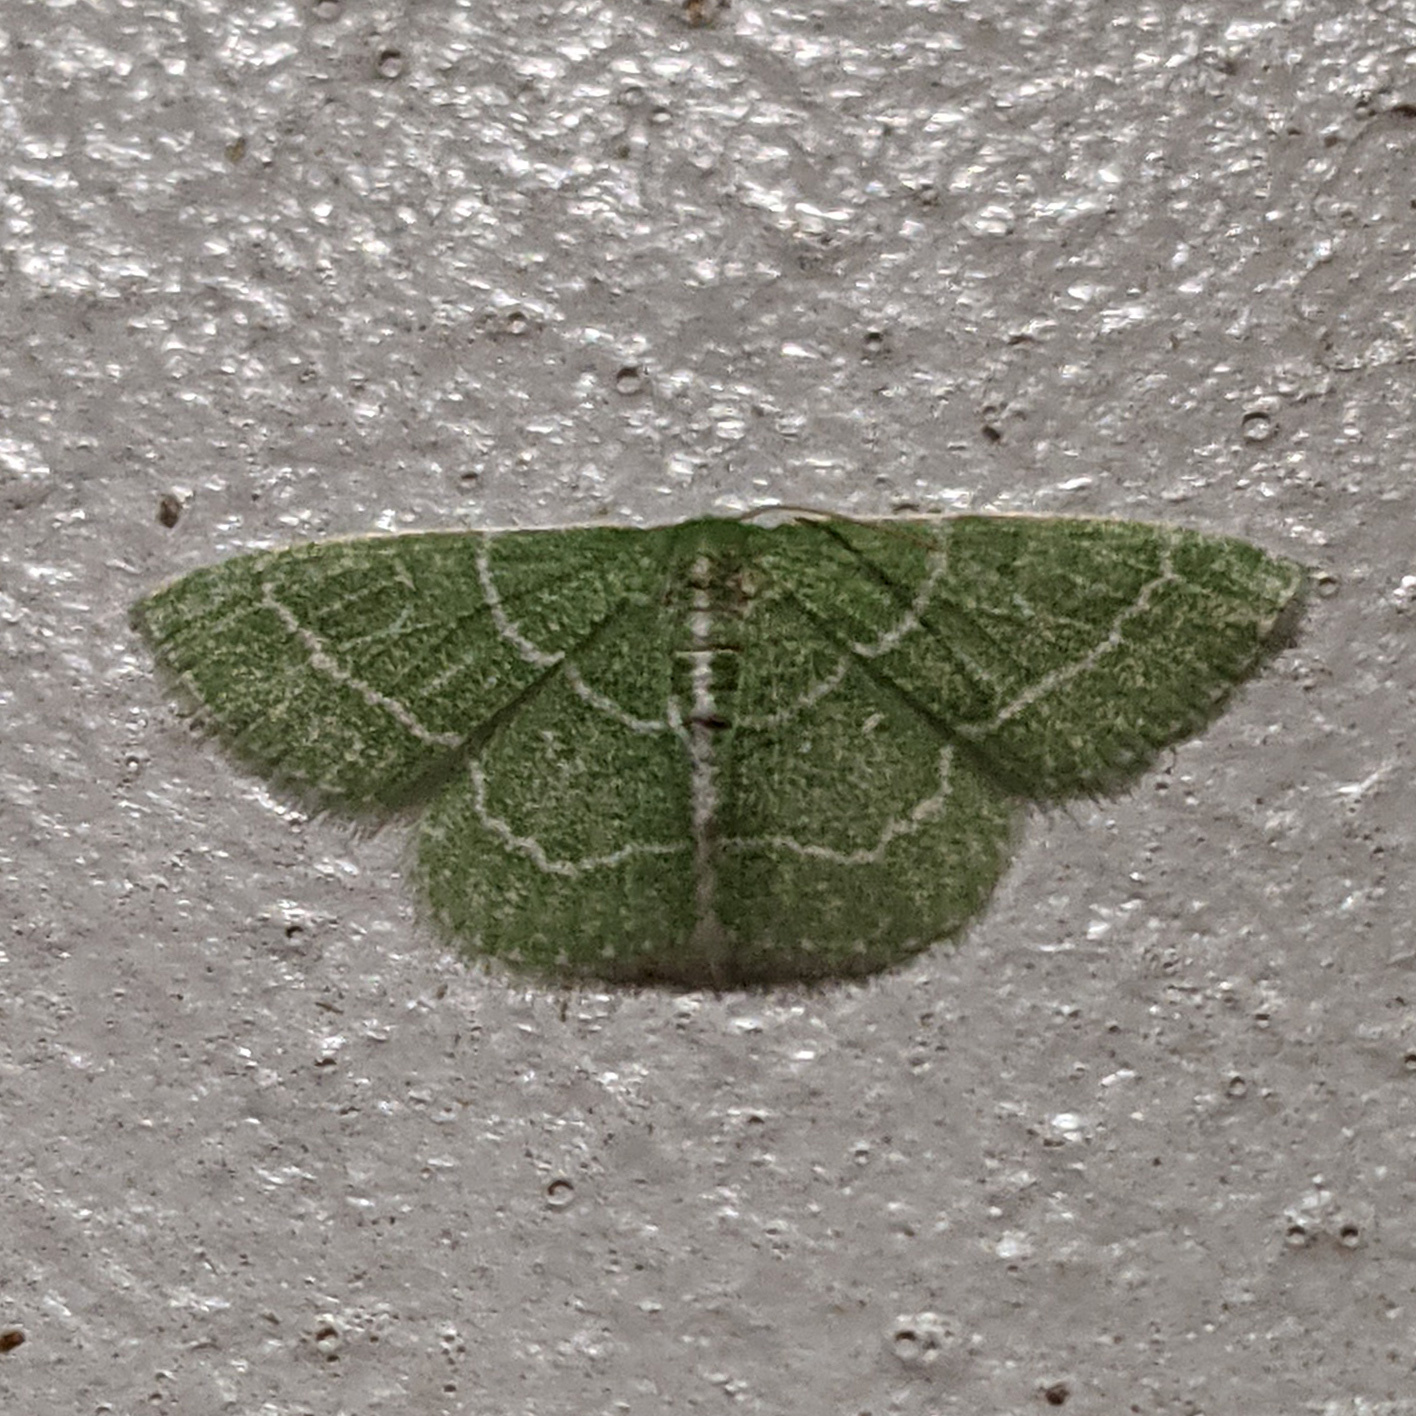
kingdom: Animalia
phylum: Arthropoda
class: Insecta
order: Lepidoptera
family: Geometridae
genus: Synchlora
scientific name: Synchlora aerata
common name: Wavy-lined emerald
